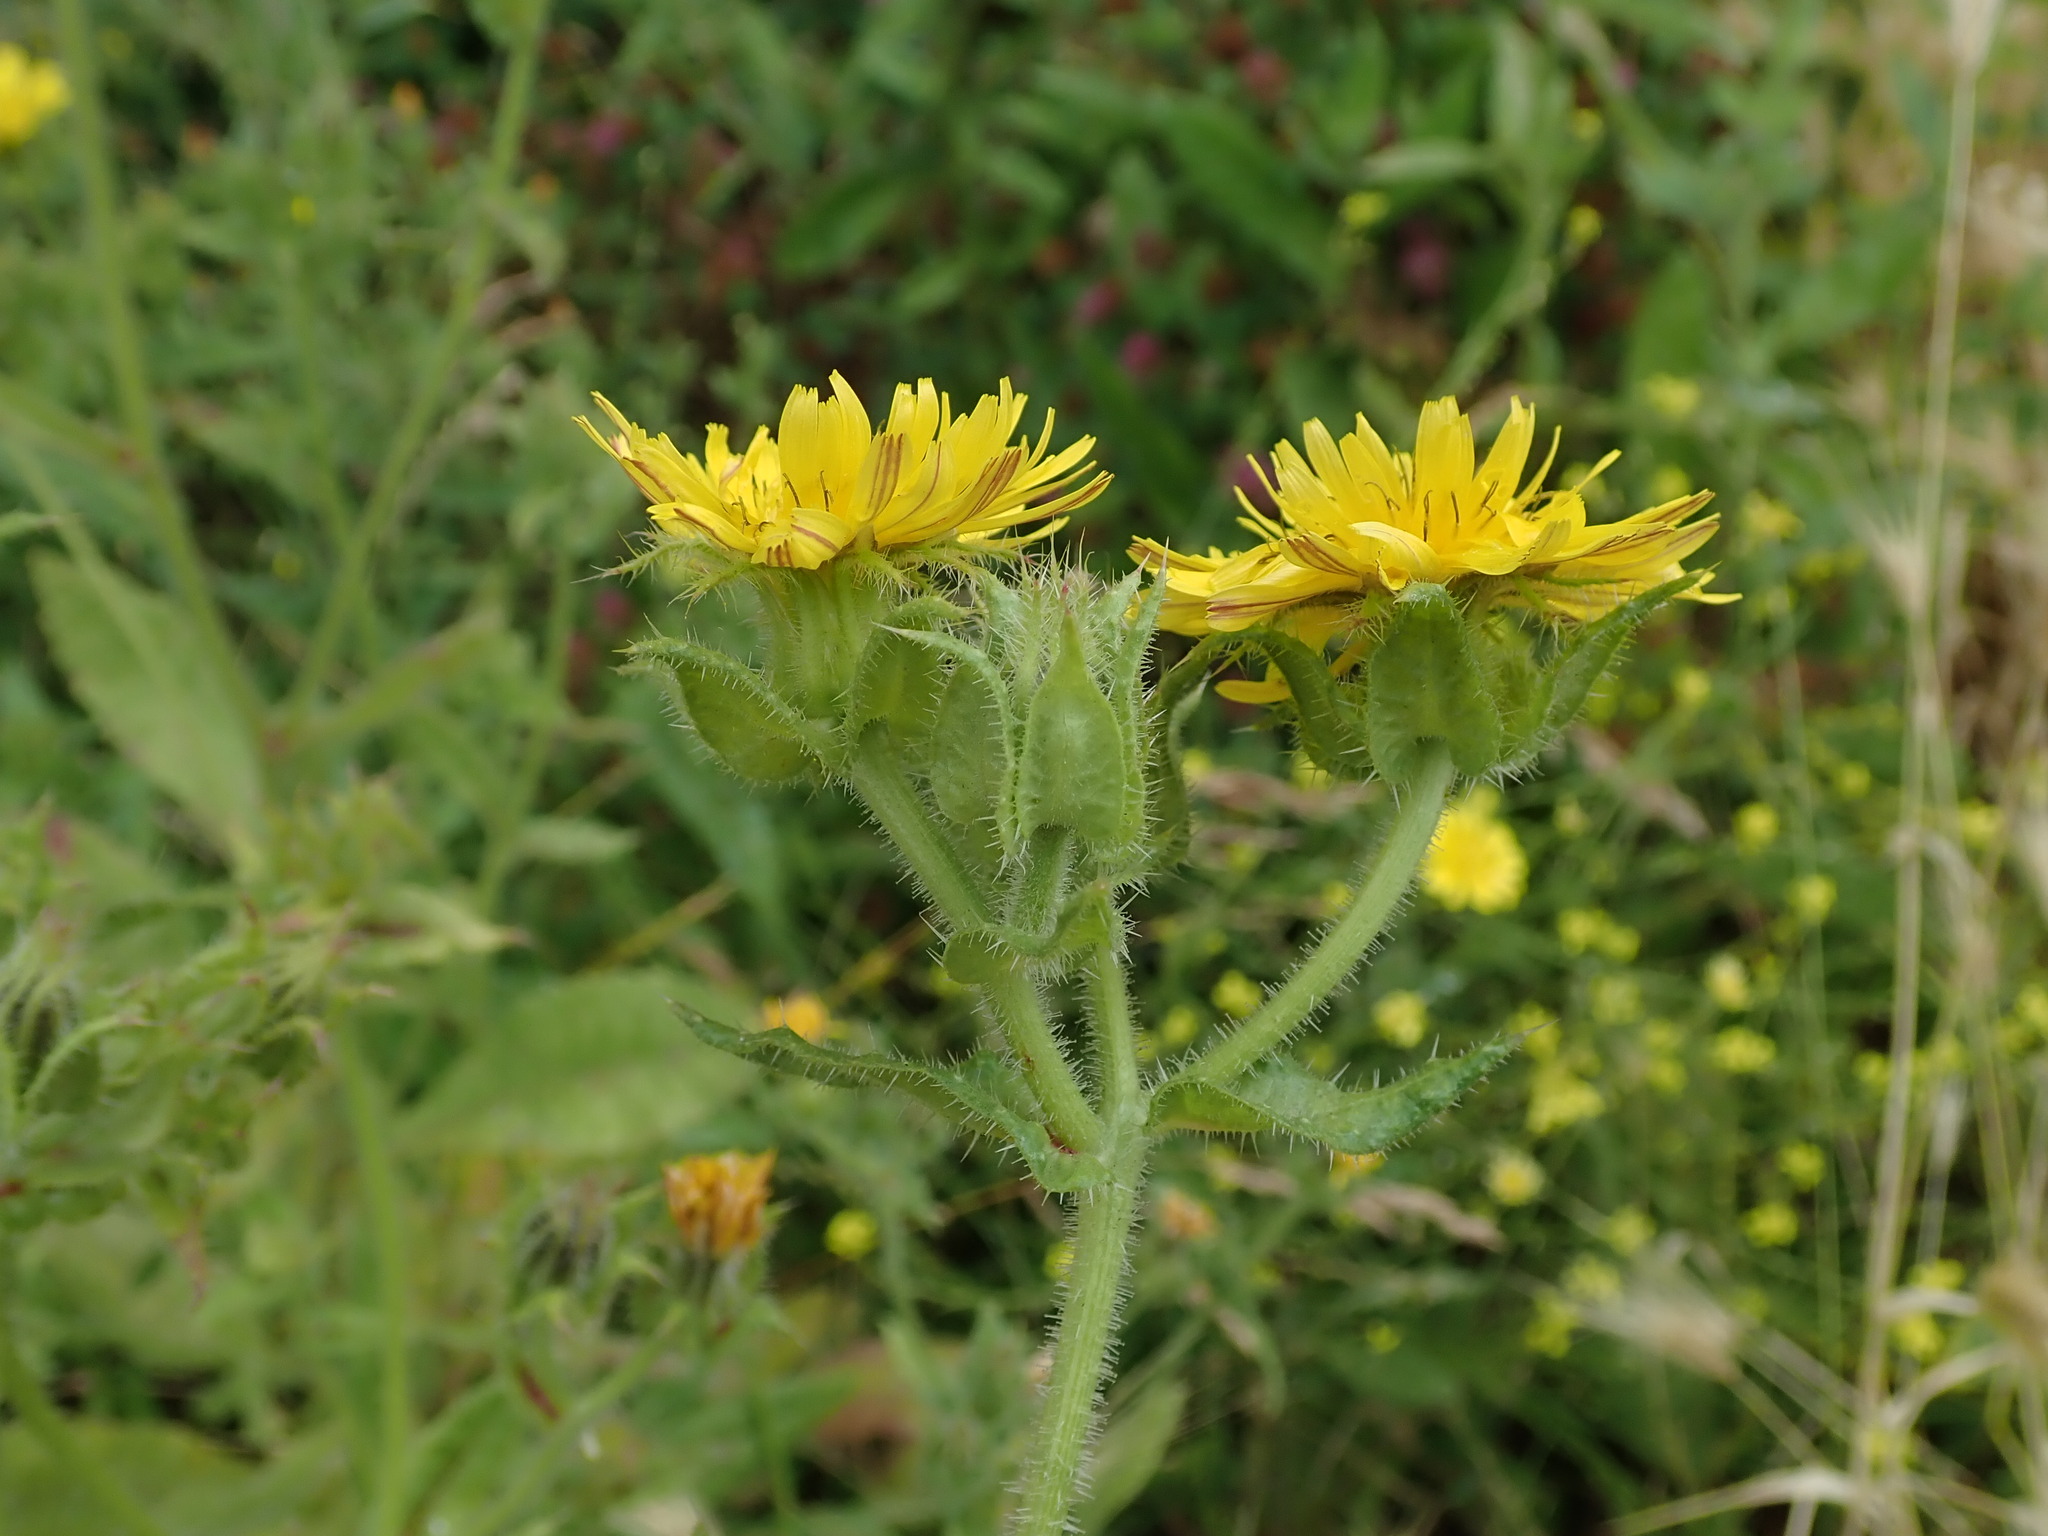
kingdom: Plantae
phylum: Tracheophyta
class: Magnoliopsida
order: Asterales
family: Asteraceae
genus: Helminthotheca
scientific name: Helminthotheca echioides
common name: Ox-tongue
